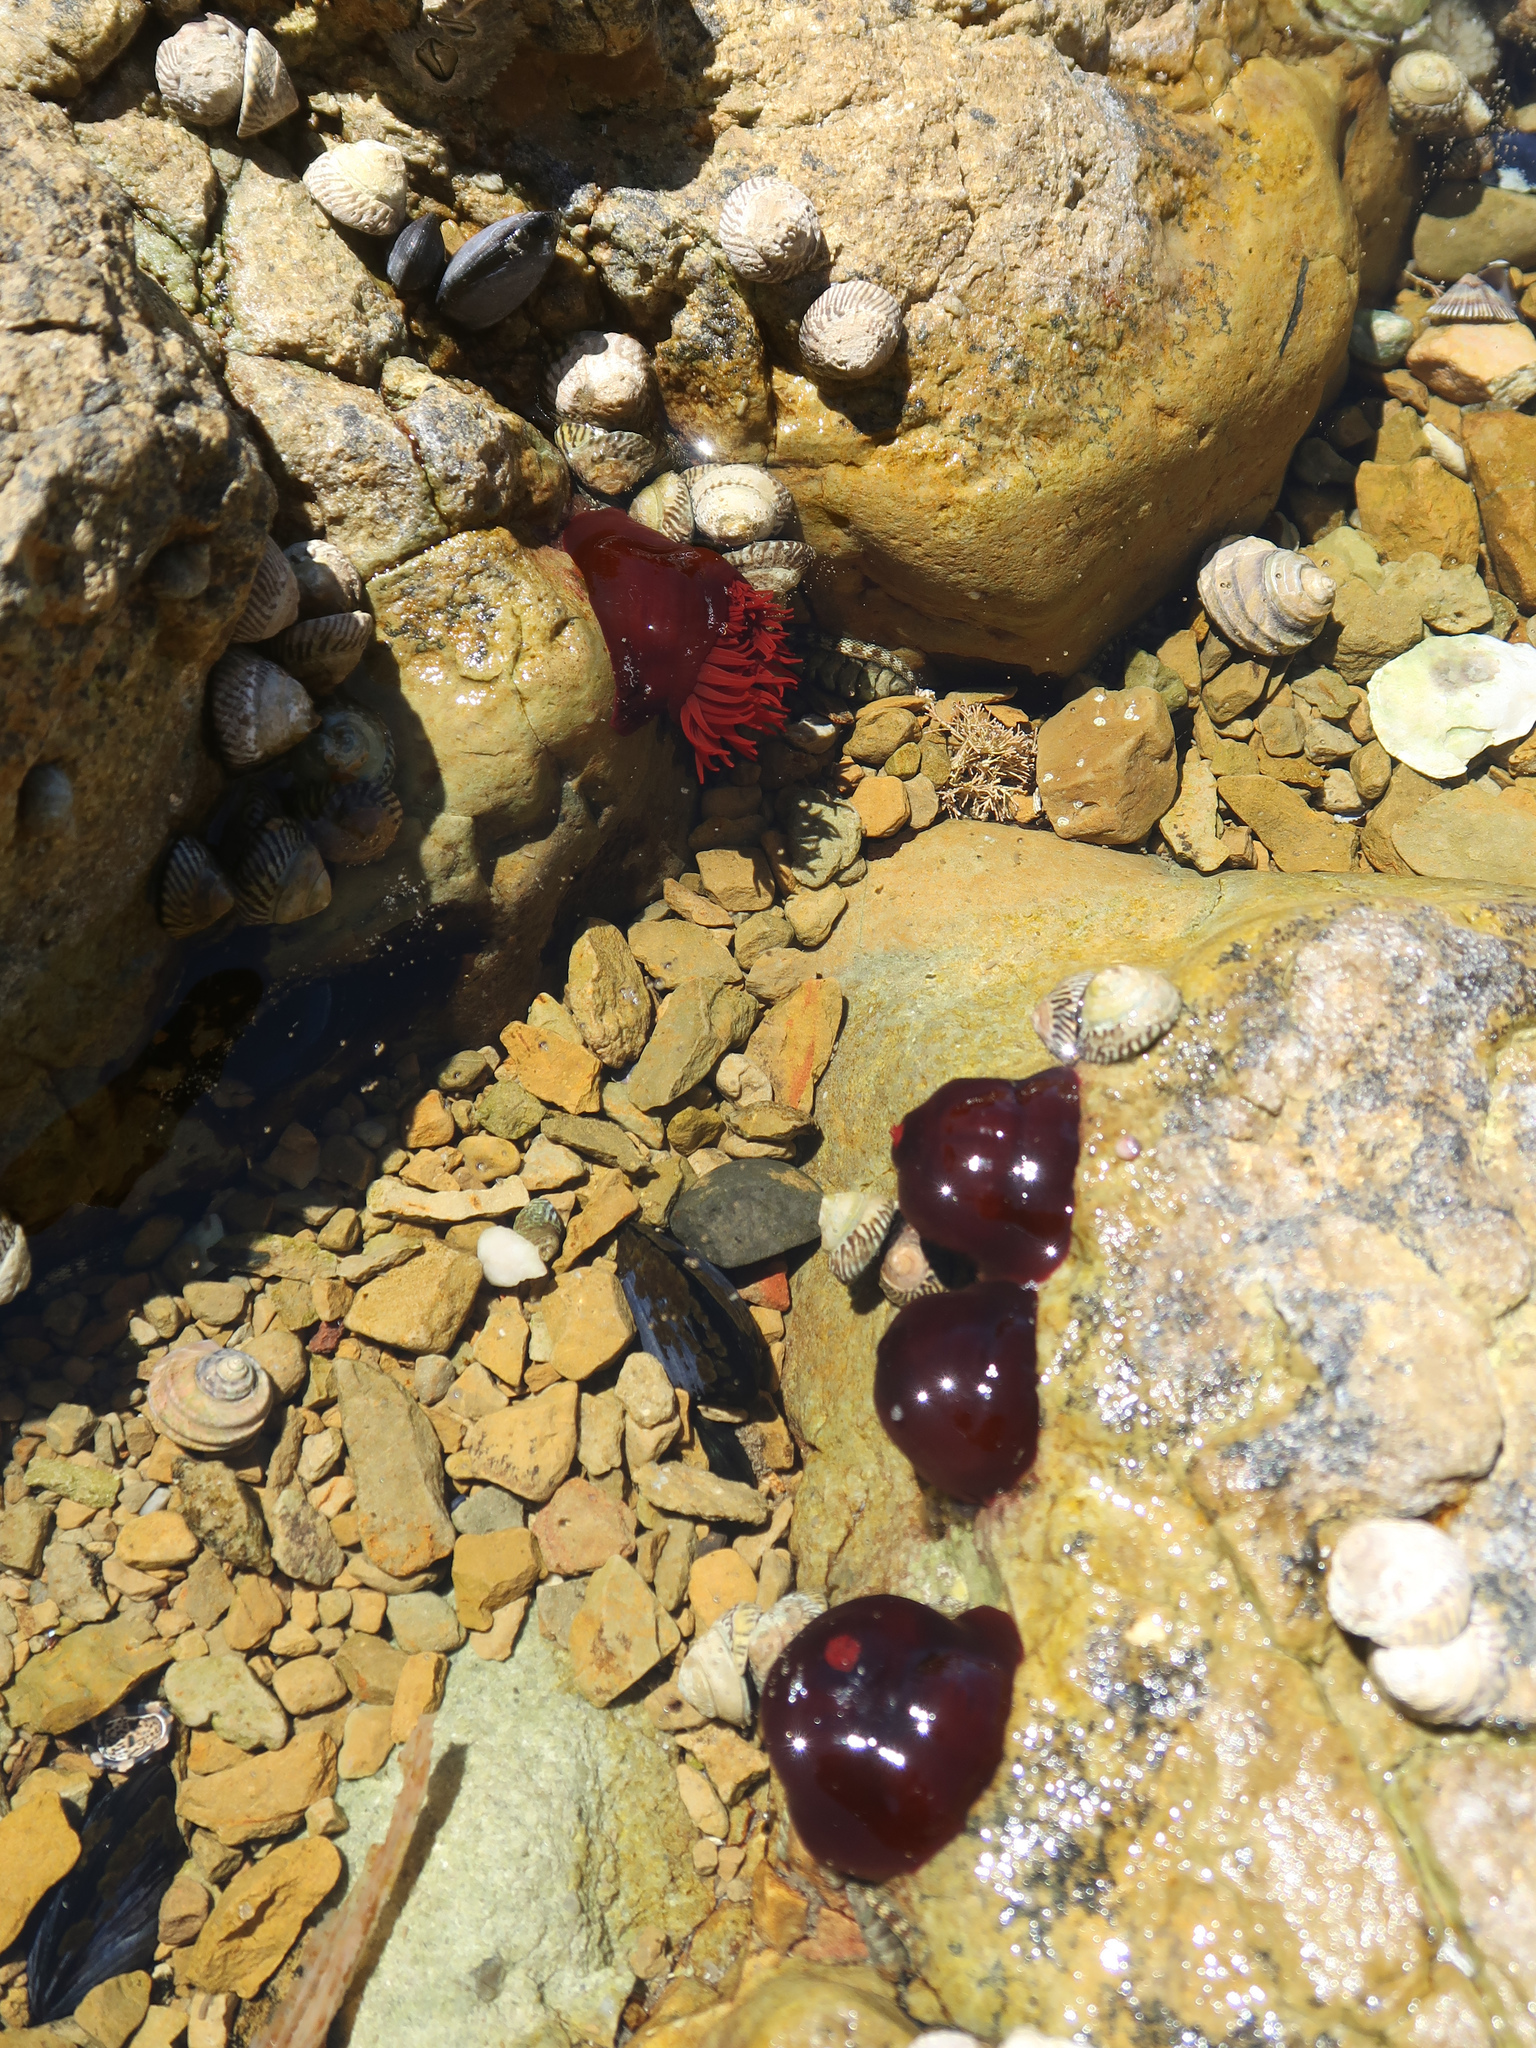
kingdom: Animalia
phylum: Cnidaria
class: Anthozoa
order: Actiniaria
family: Actiniidae
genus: Actinia
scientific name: Actinia tenebrosa
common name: Waratah anemone
